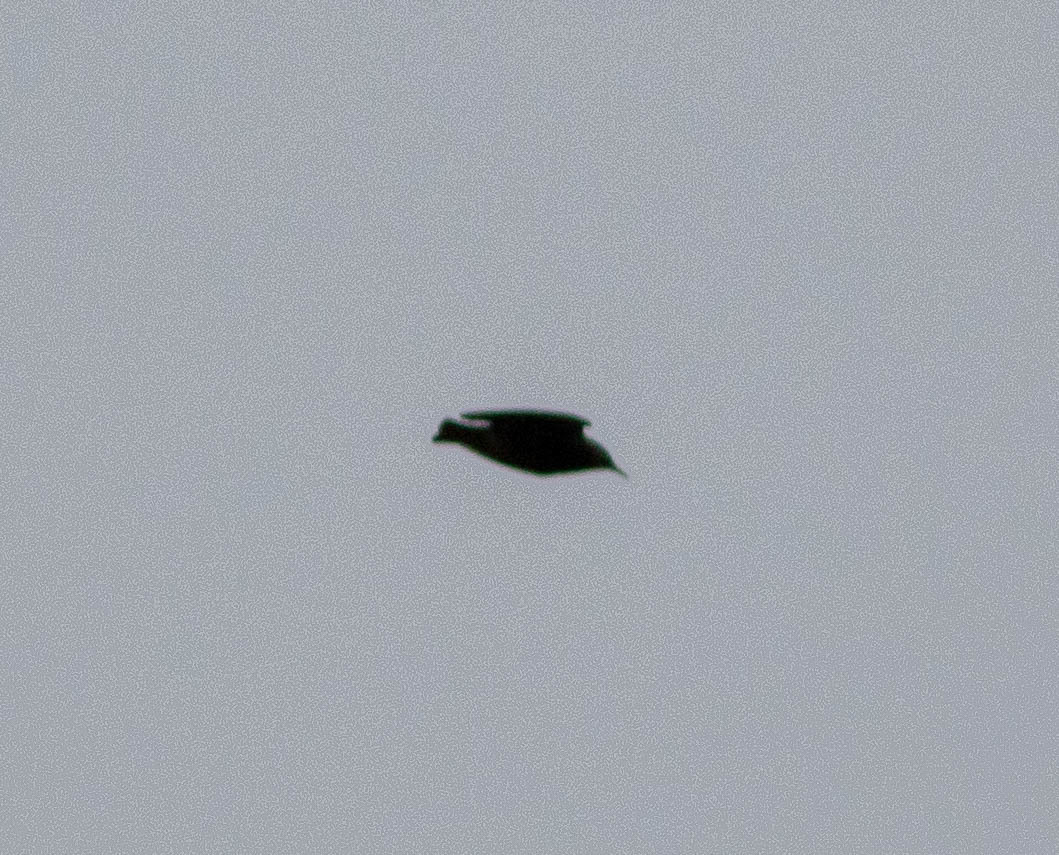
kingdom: Animalia
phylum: Chordata
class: Aves
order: Passeriformes
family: Sturnidae
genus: Sturnus
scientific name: Sturnus vulgaris
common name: Common starling
